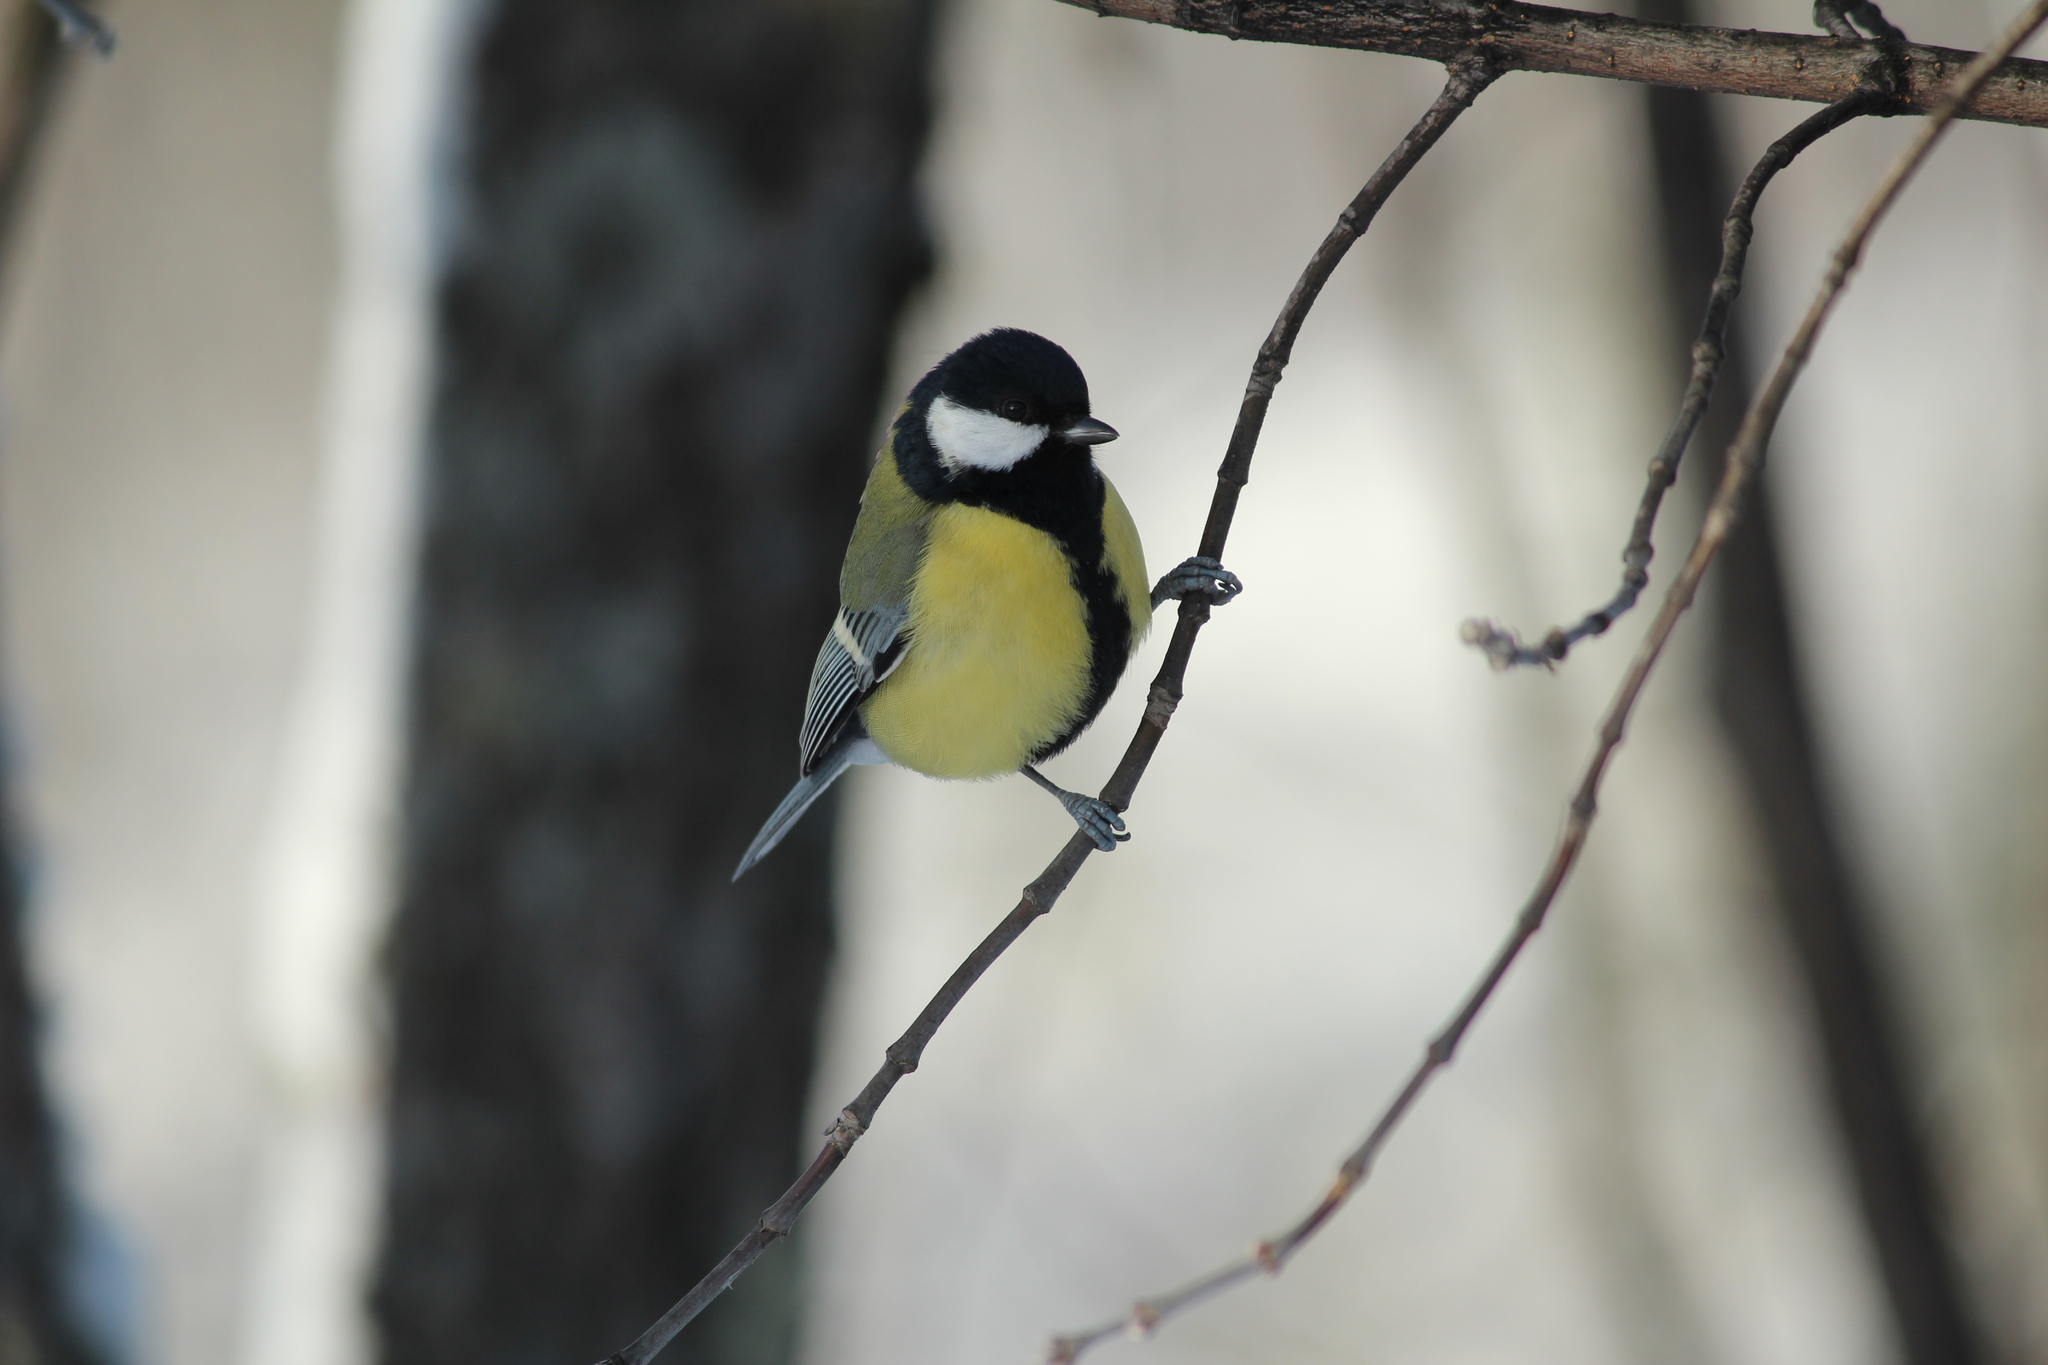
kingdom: Animalia
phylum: Chordata
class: Aves
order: Passeriformes
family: Paridae
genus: Parus
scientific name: Parus major
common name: Great tit
